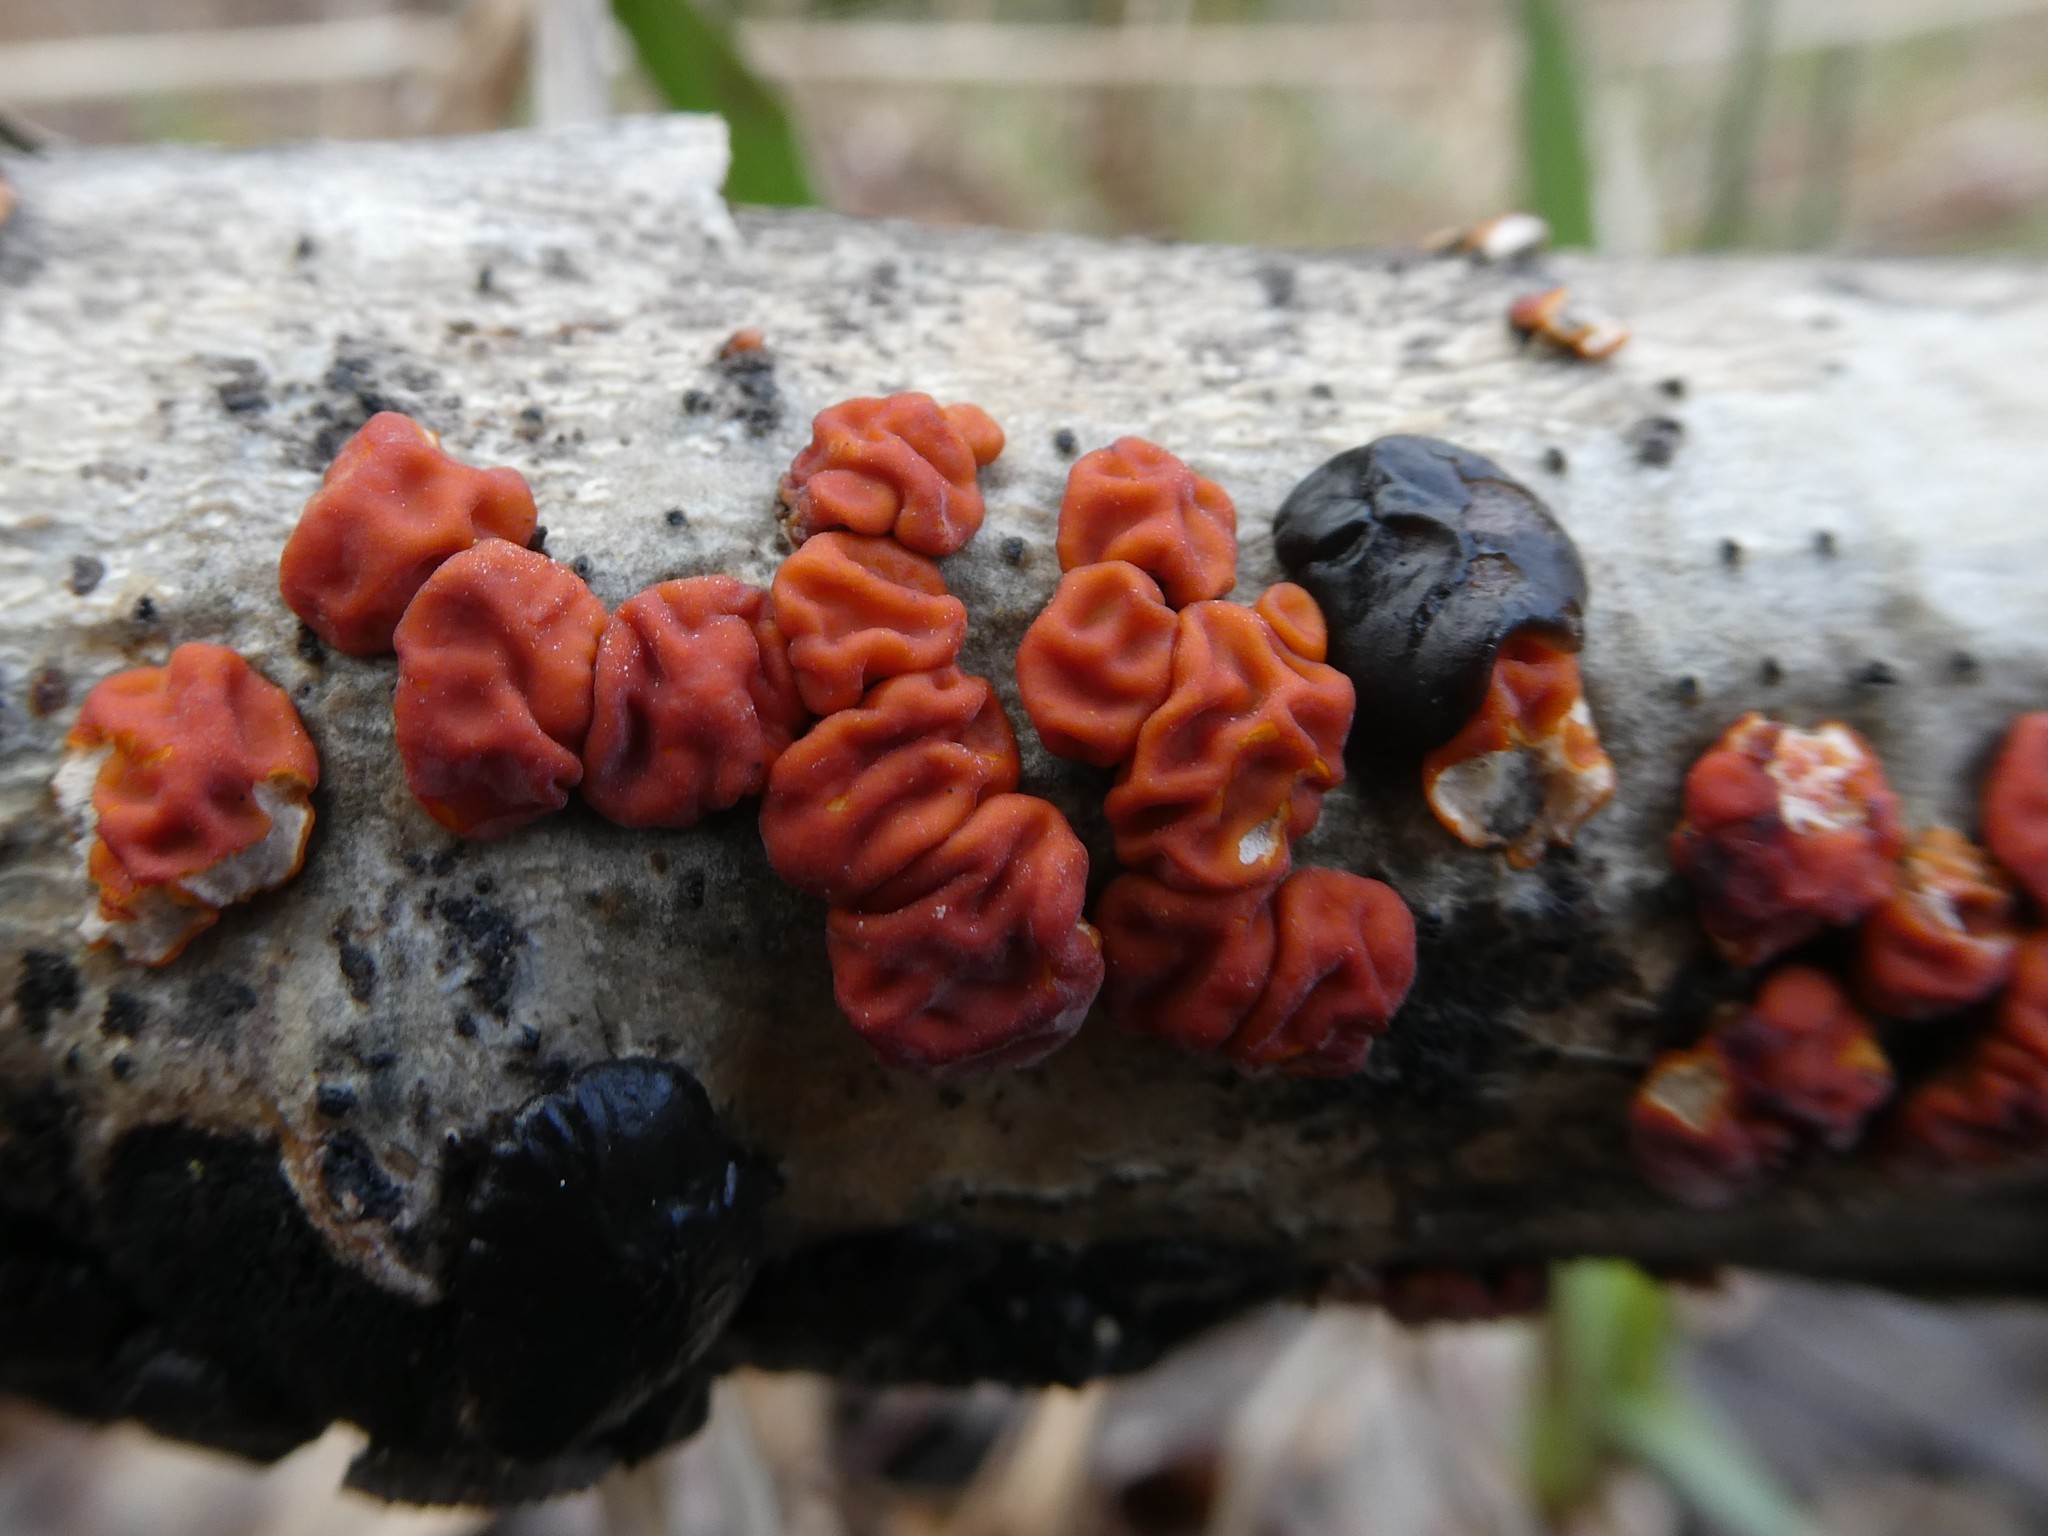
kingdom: Fungi
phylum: Basidiomycota
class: Agaricomycetes
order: Russulales
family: Peniophoraceae
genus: Peniophora
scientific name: Peniophora rufa
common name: Red tree brain fungus
